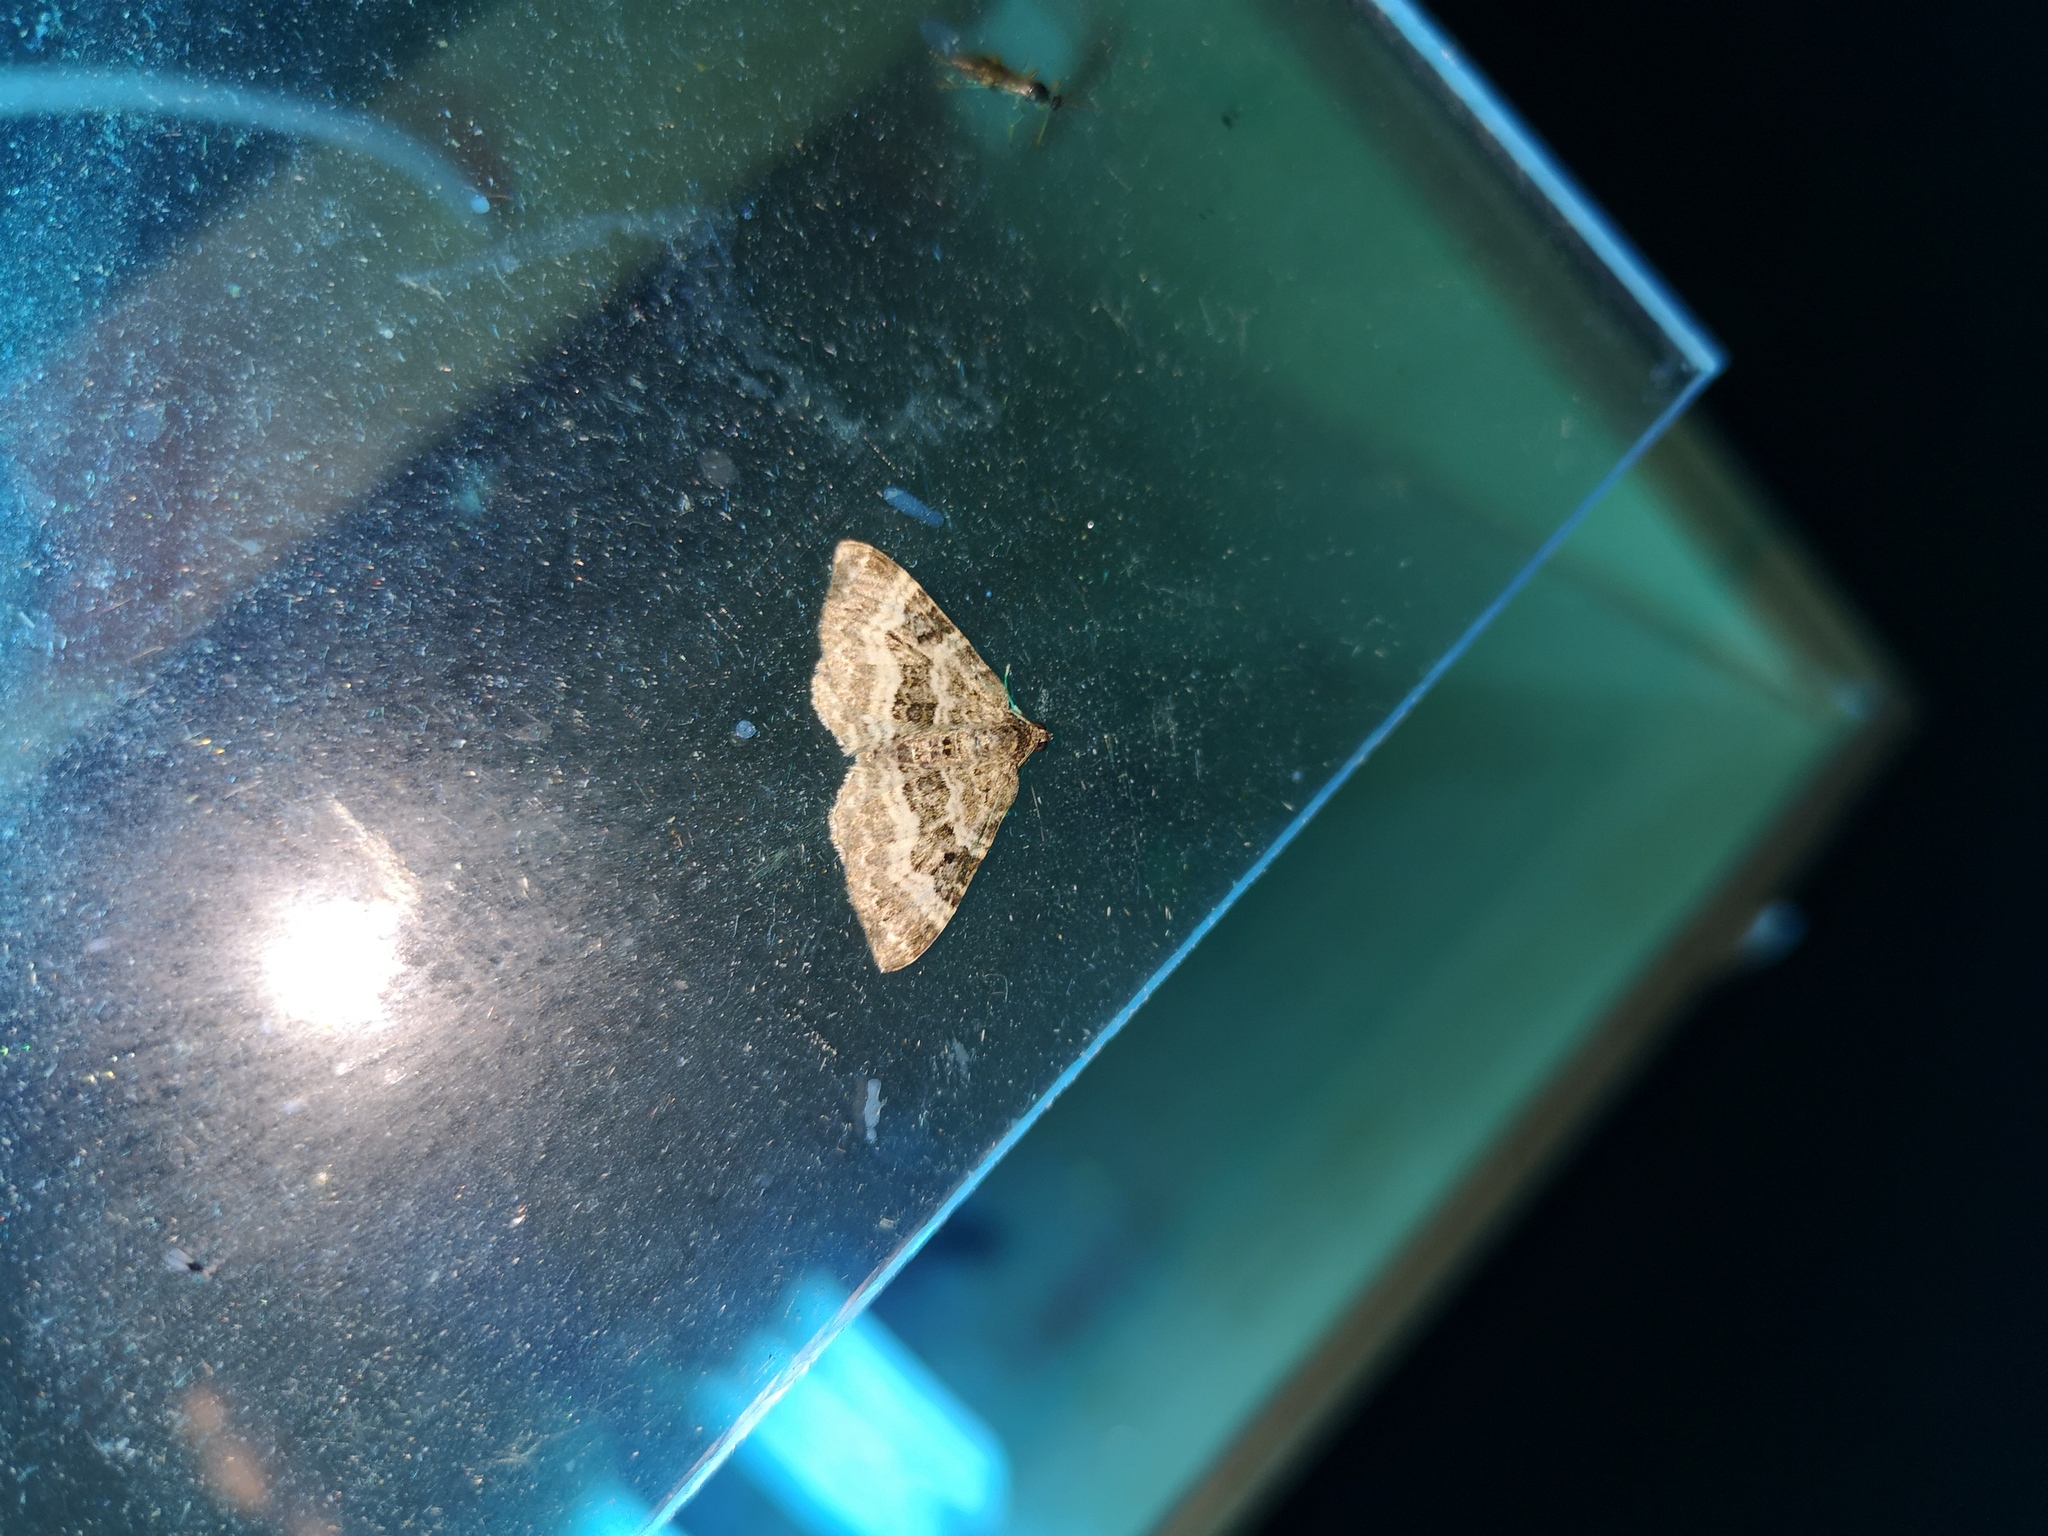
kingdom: Animalia
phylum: Arthropoda
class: Insecta
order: Lepidoptera
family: Geometridae
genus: Epirrhoe
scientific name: Epirrhoe alternata
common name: Common carpet
